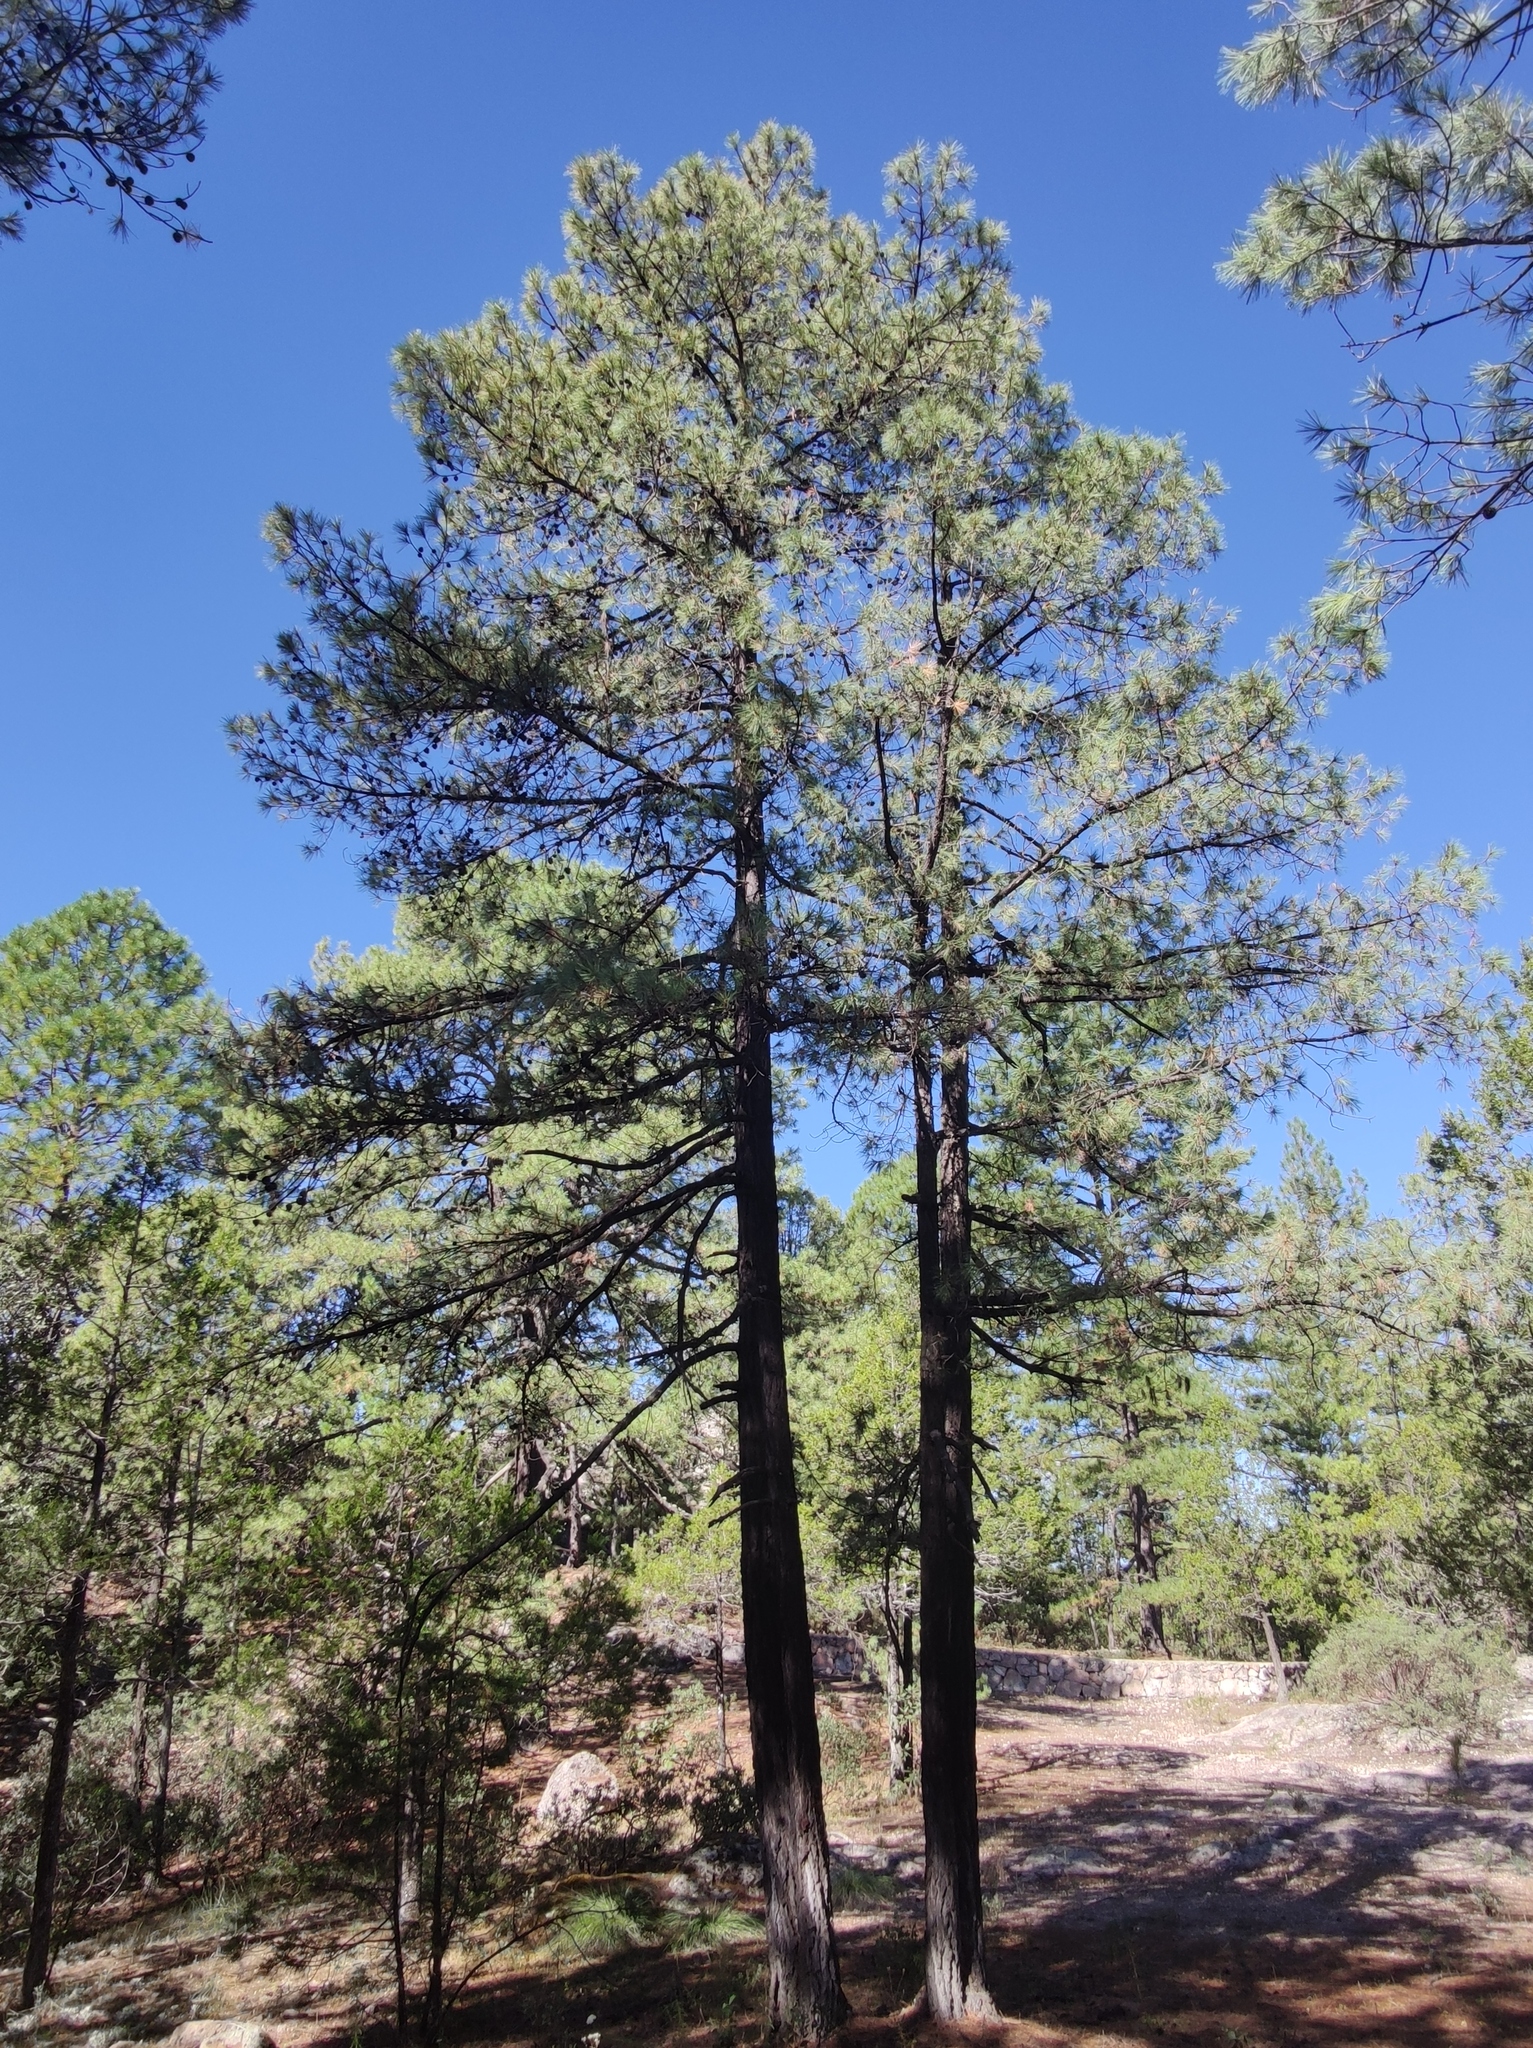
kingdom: Plantae
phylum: Tracheophyta
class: Pinopsida
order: Pinales
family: Pinaceae
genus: Pinus
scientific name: Pinus leiophylla
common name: Chihuahua pine
